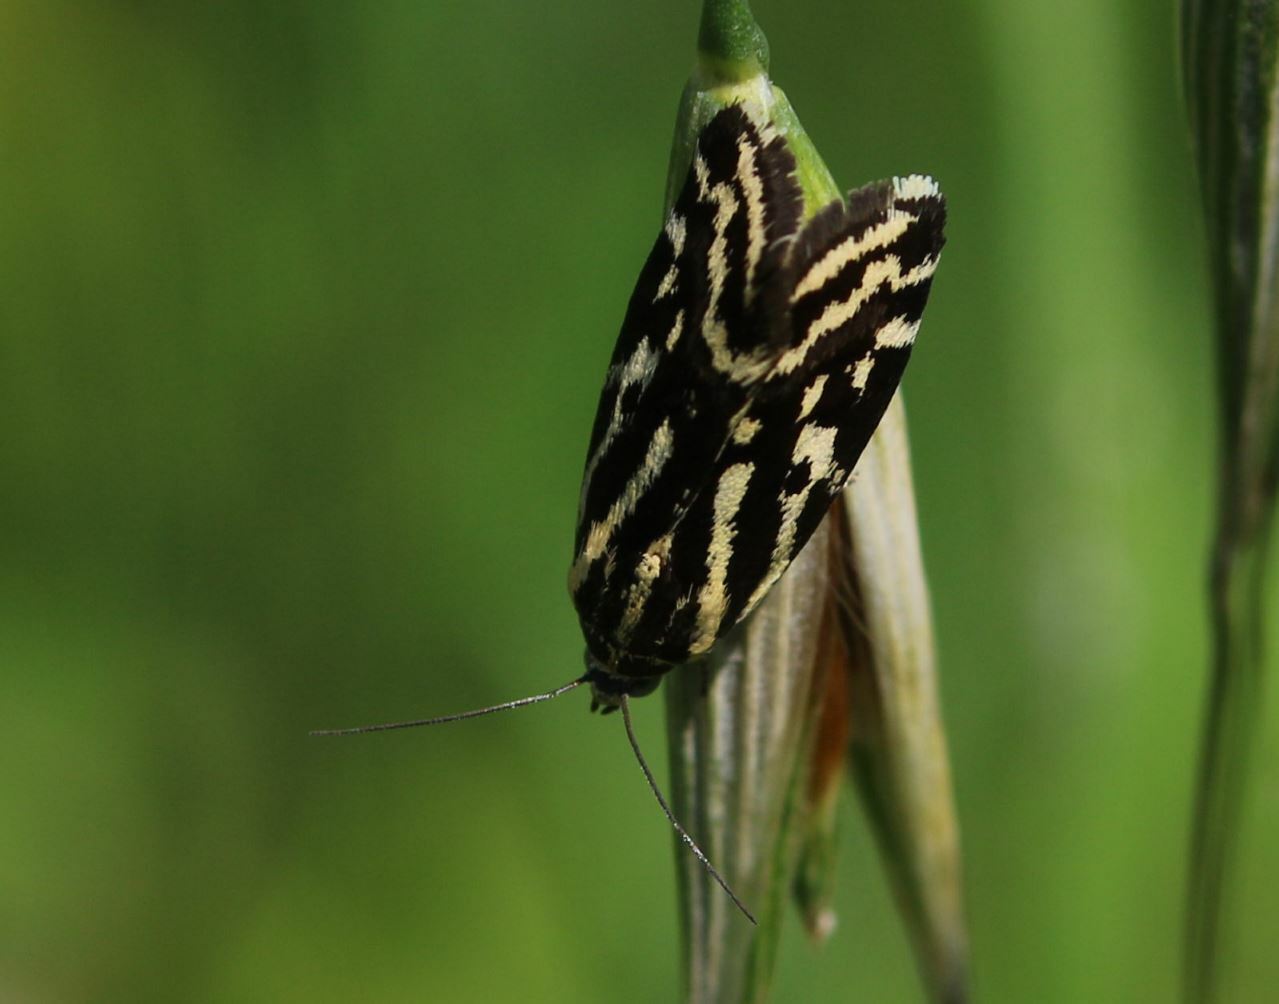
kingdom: Animalia
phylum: Arthropoda
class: Insecta
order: Lepidoptera
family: Noctuidae
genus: Acontia
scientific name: Acontia trabealis
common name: Spotted sulphur
